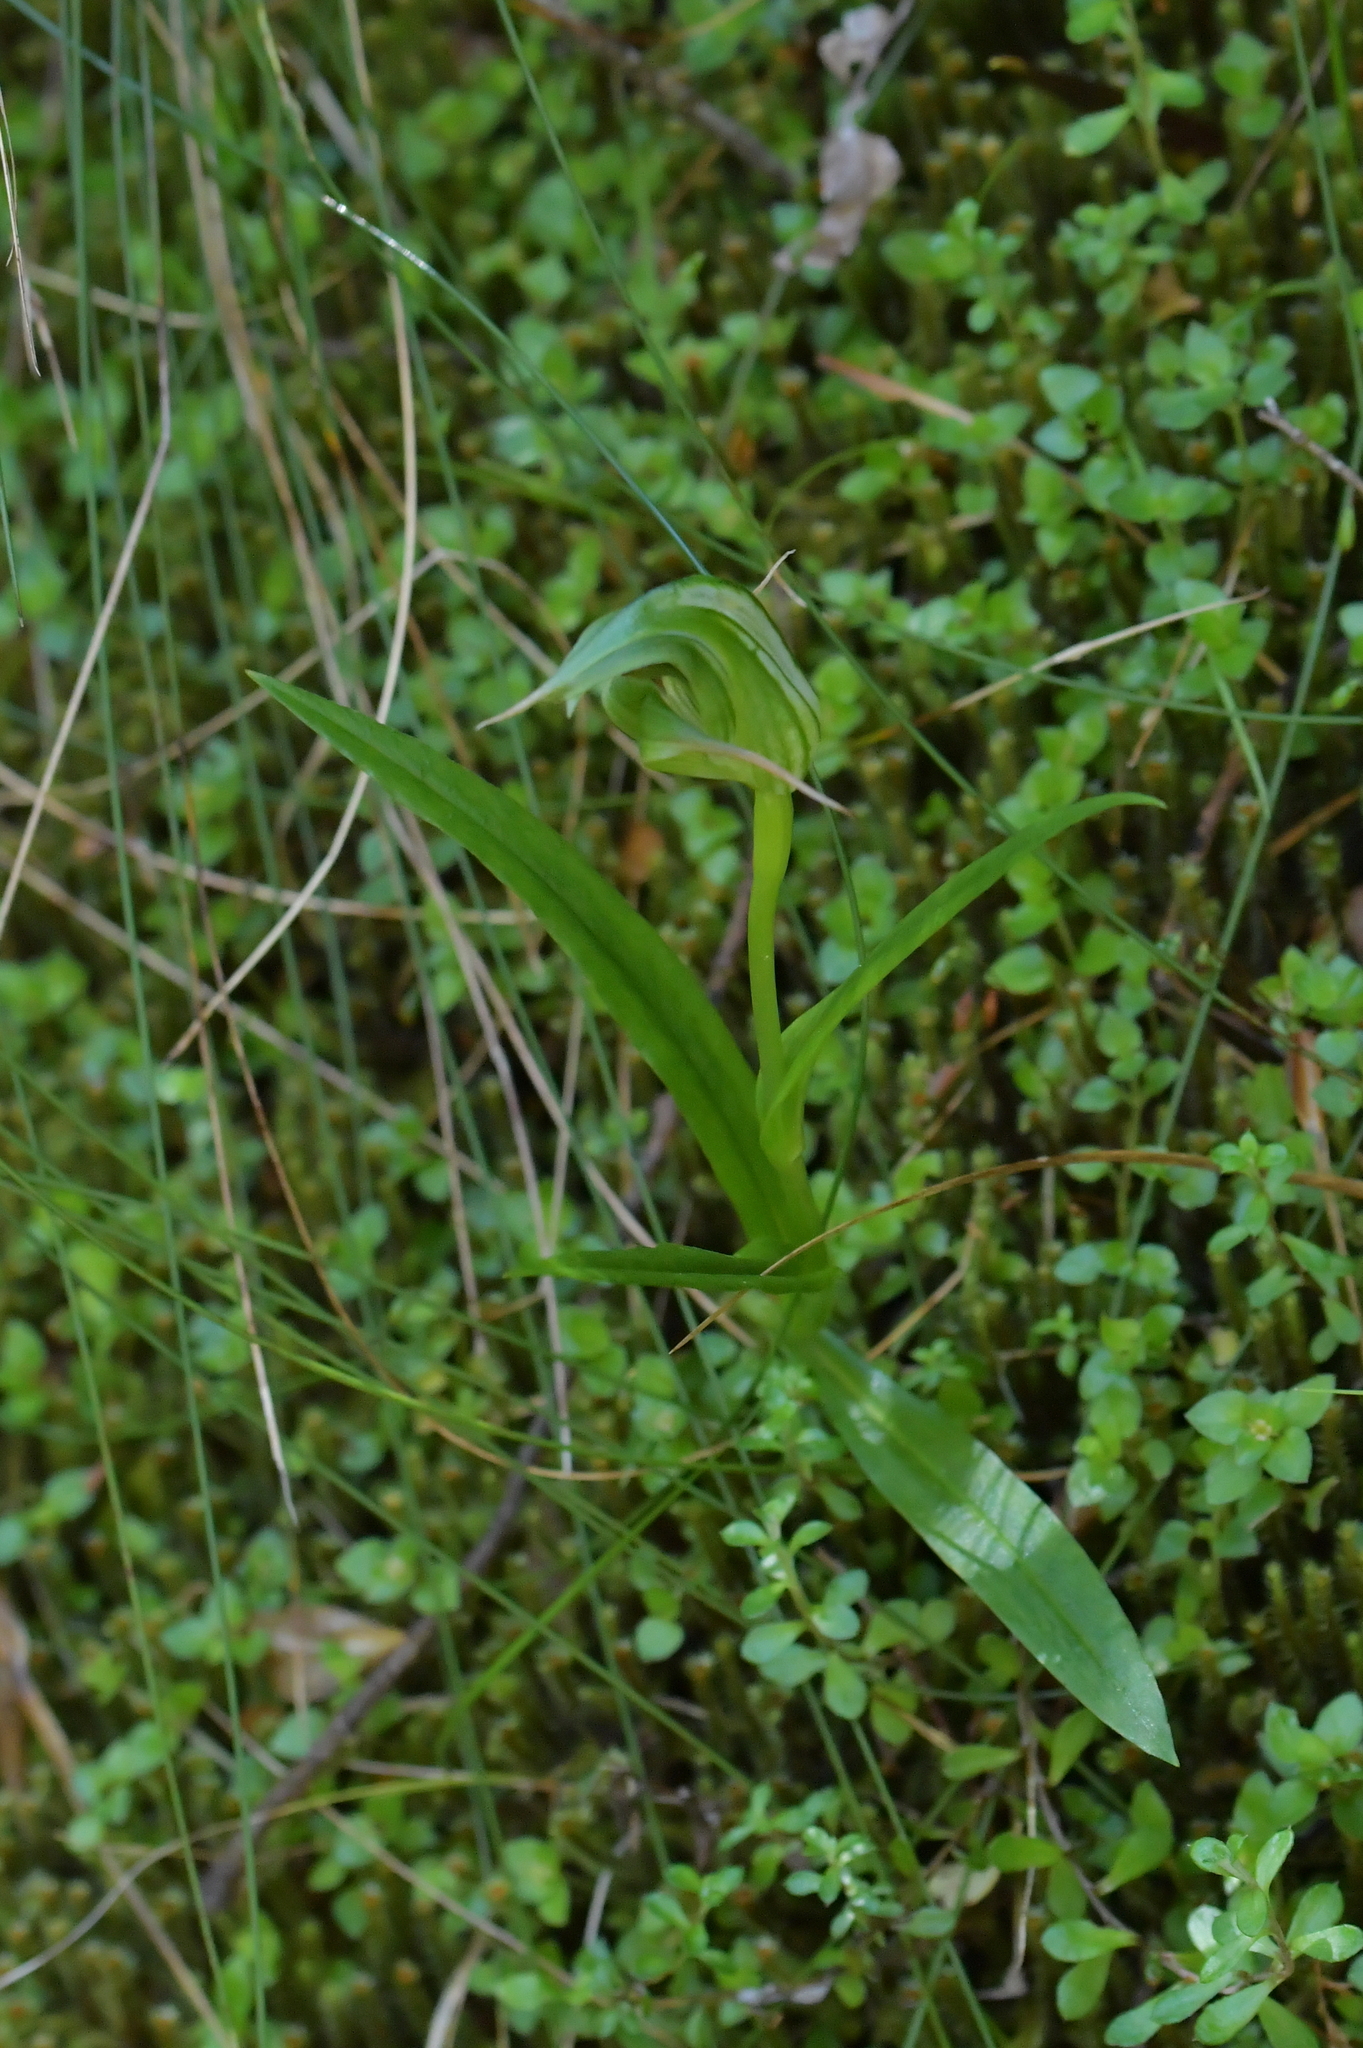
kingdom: Plantae
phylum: Tracheophyta
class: Liliopsida
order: Asparagales
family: Orchidaceae
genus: Pterostylis
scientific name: Pterostylis australis
